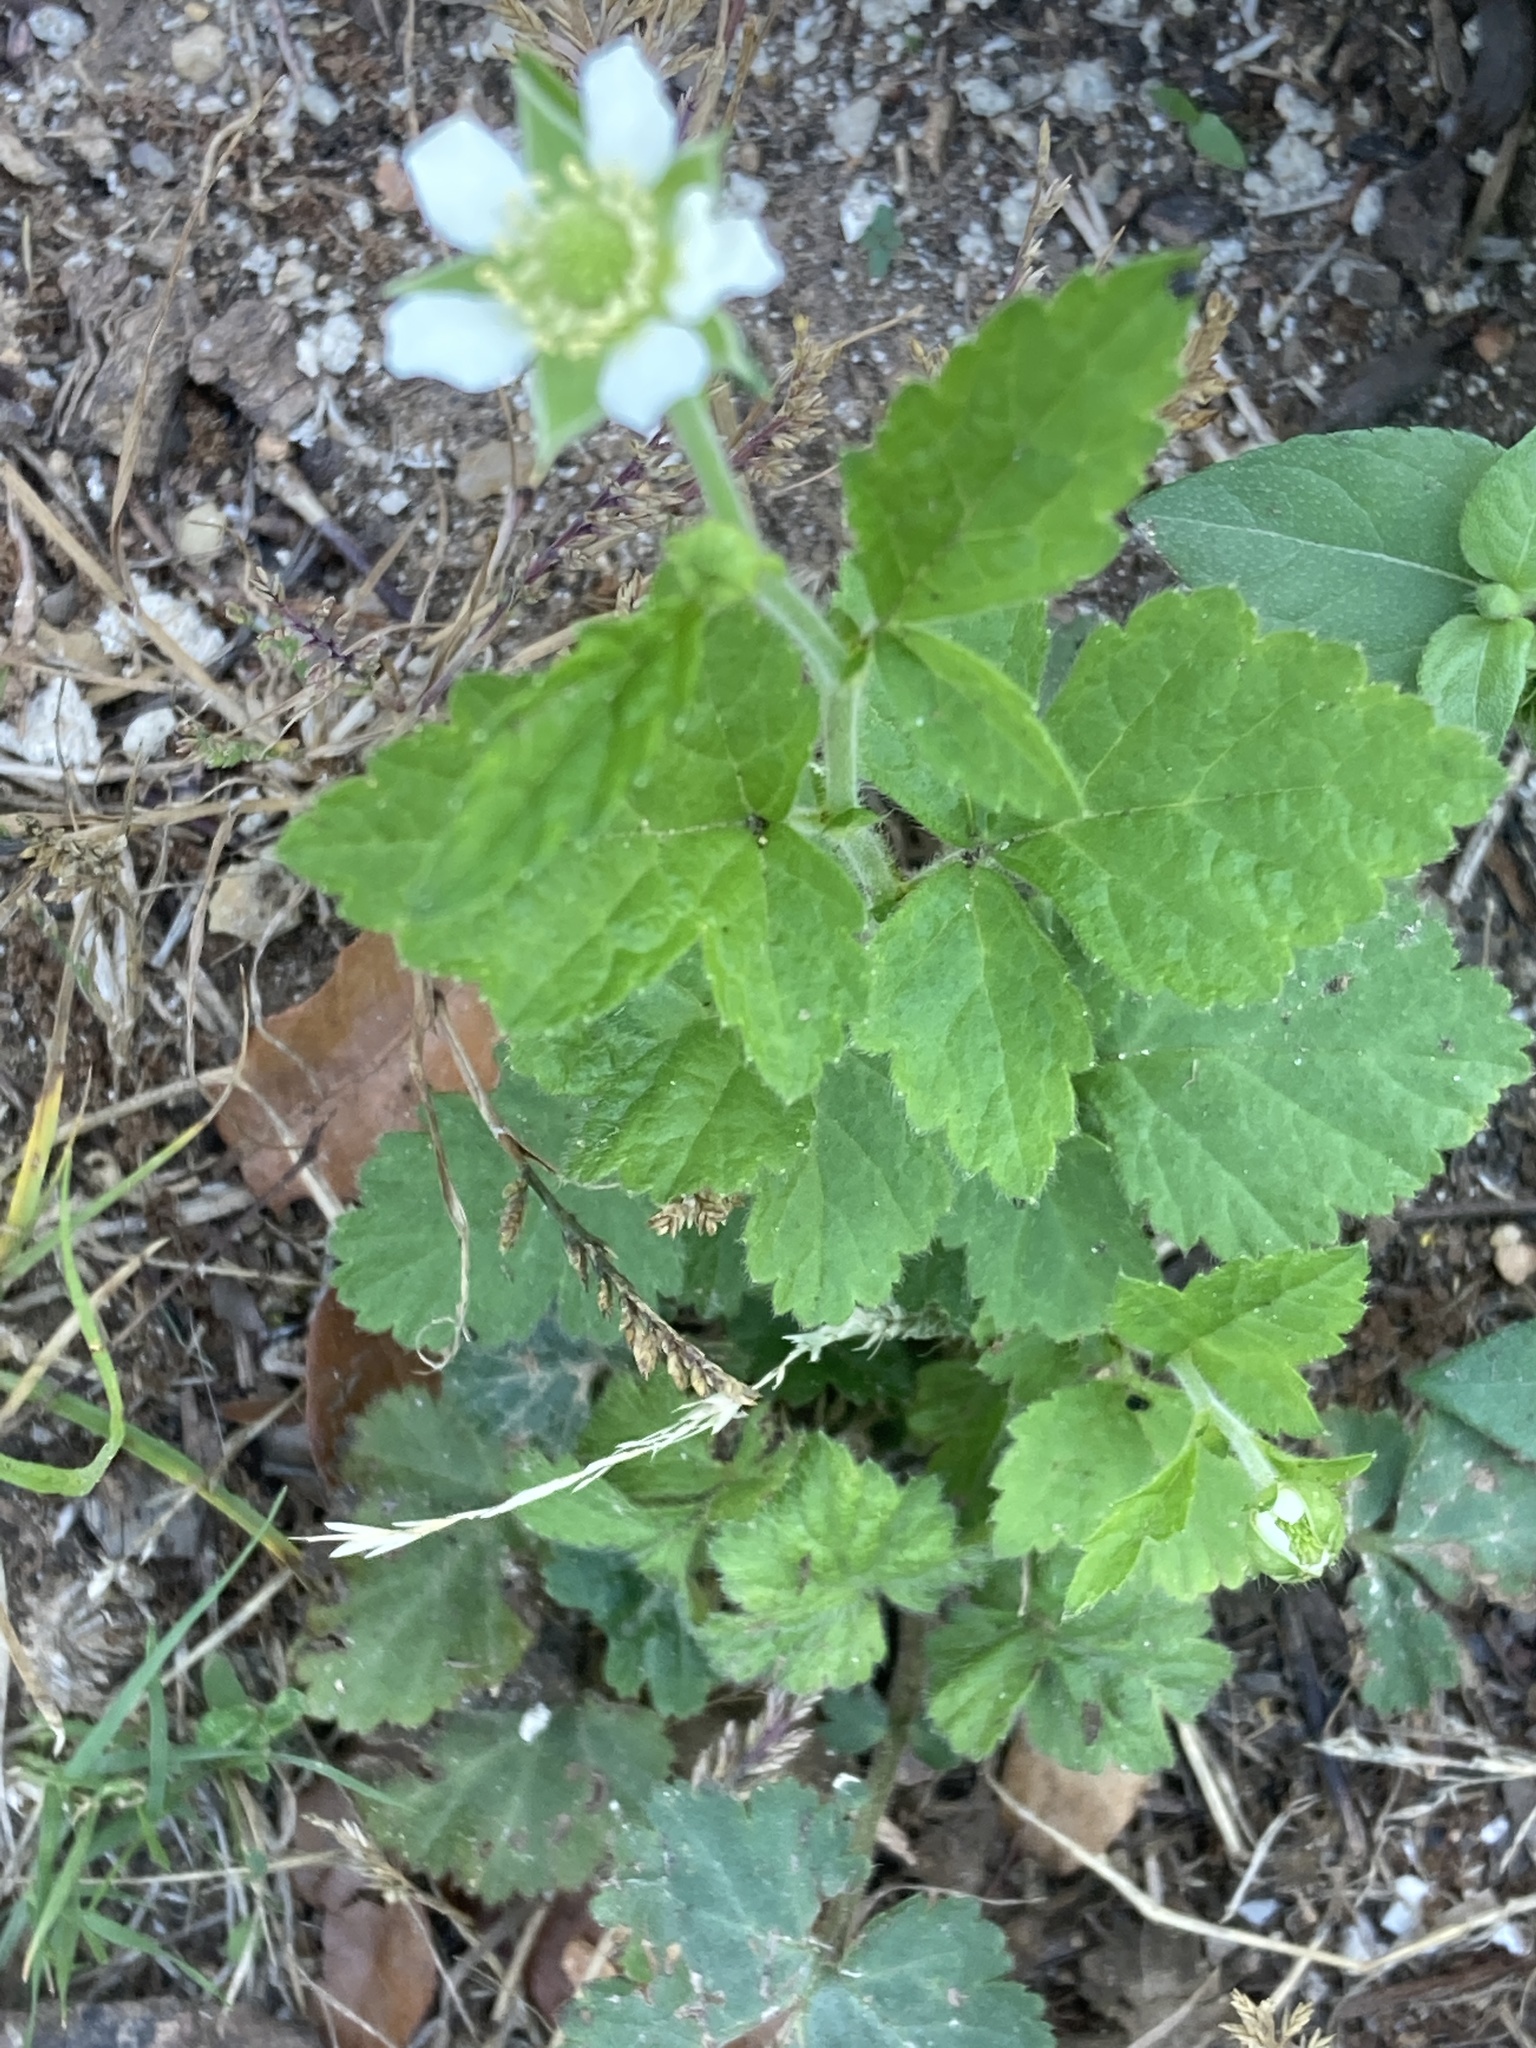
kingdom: Plantae
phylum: Tracheophyta
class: Magnoliopsida
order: Rosales
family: Rosaceae
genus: Geum
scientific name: Geum canadense
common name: White avens
